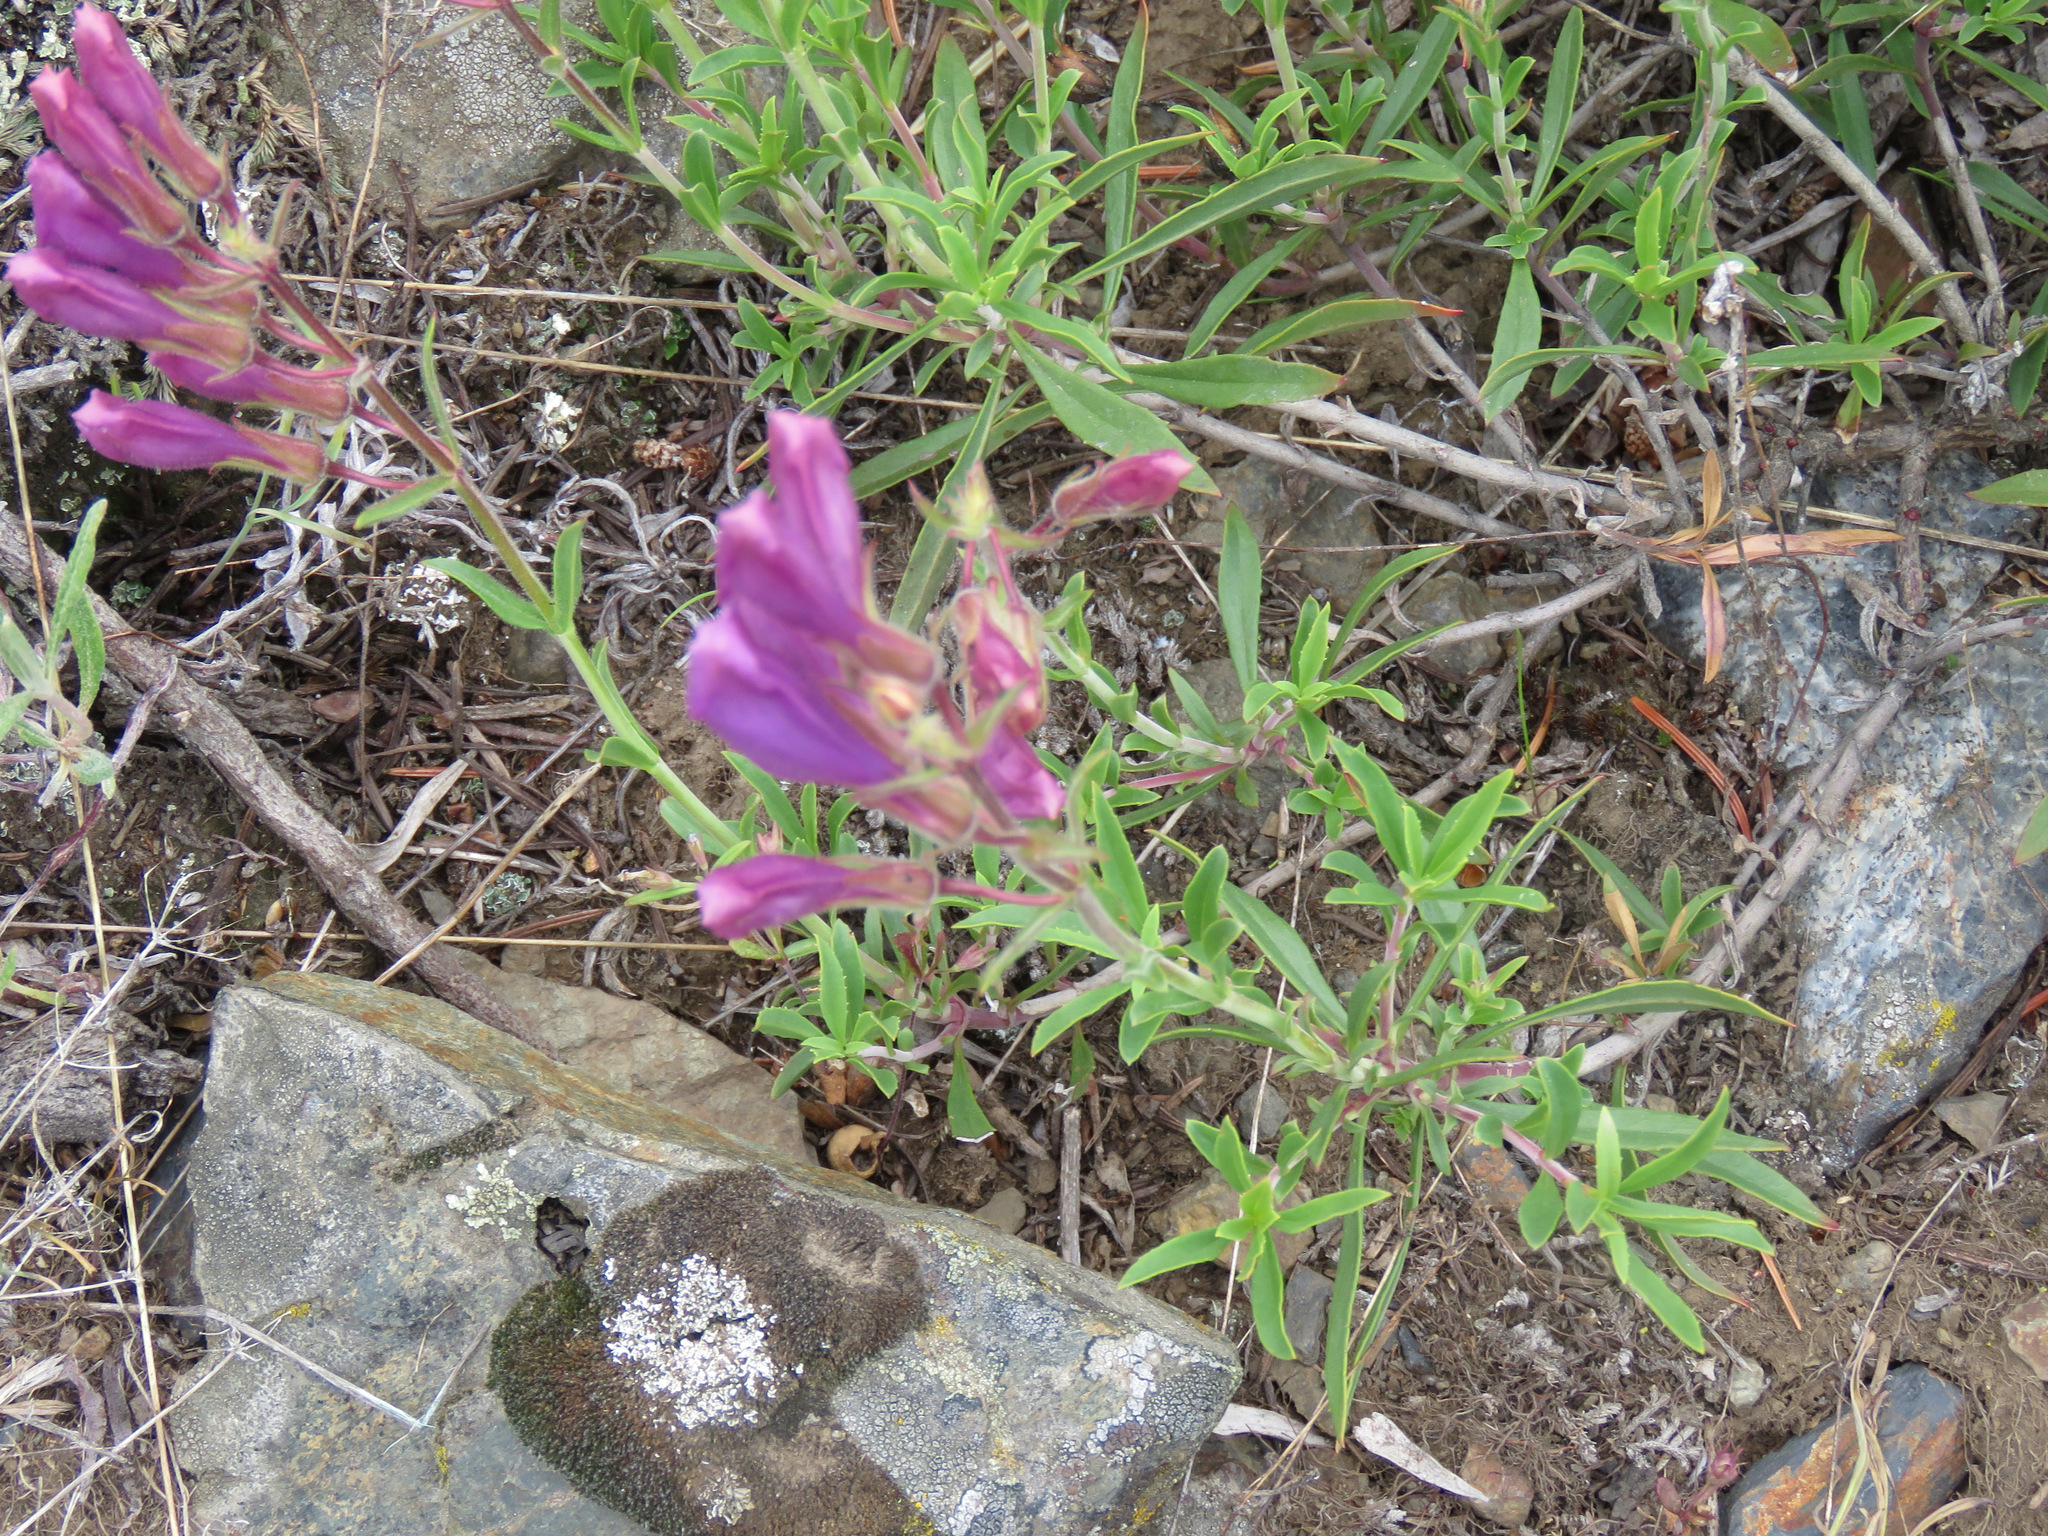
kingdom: Plantae
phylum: Tracheophyta
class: Magnoliopsida
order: Lamiales
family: Plantaginaceae
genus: Penstemon
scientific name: Penstemon fruticosus
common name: Bush penstemon
